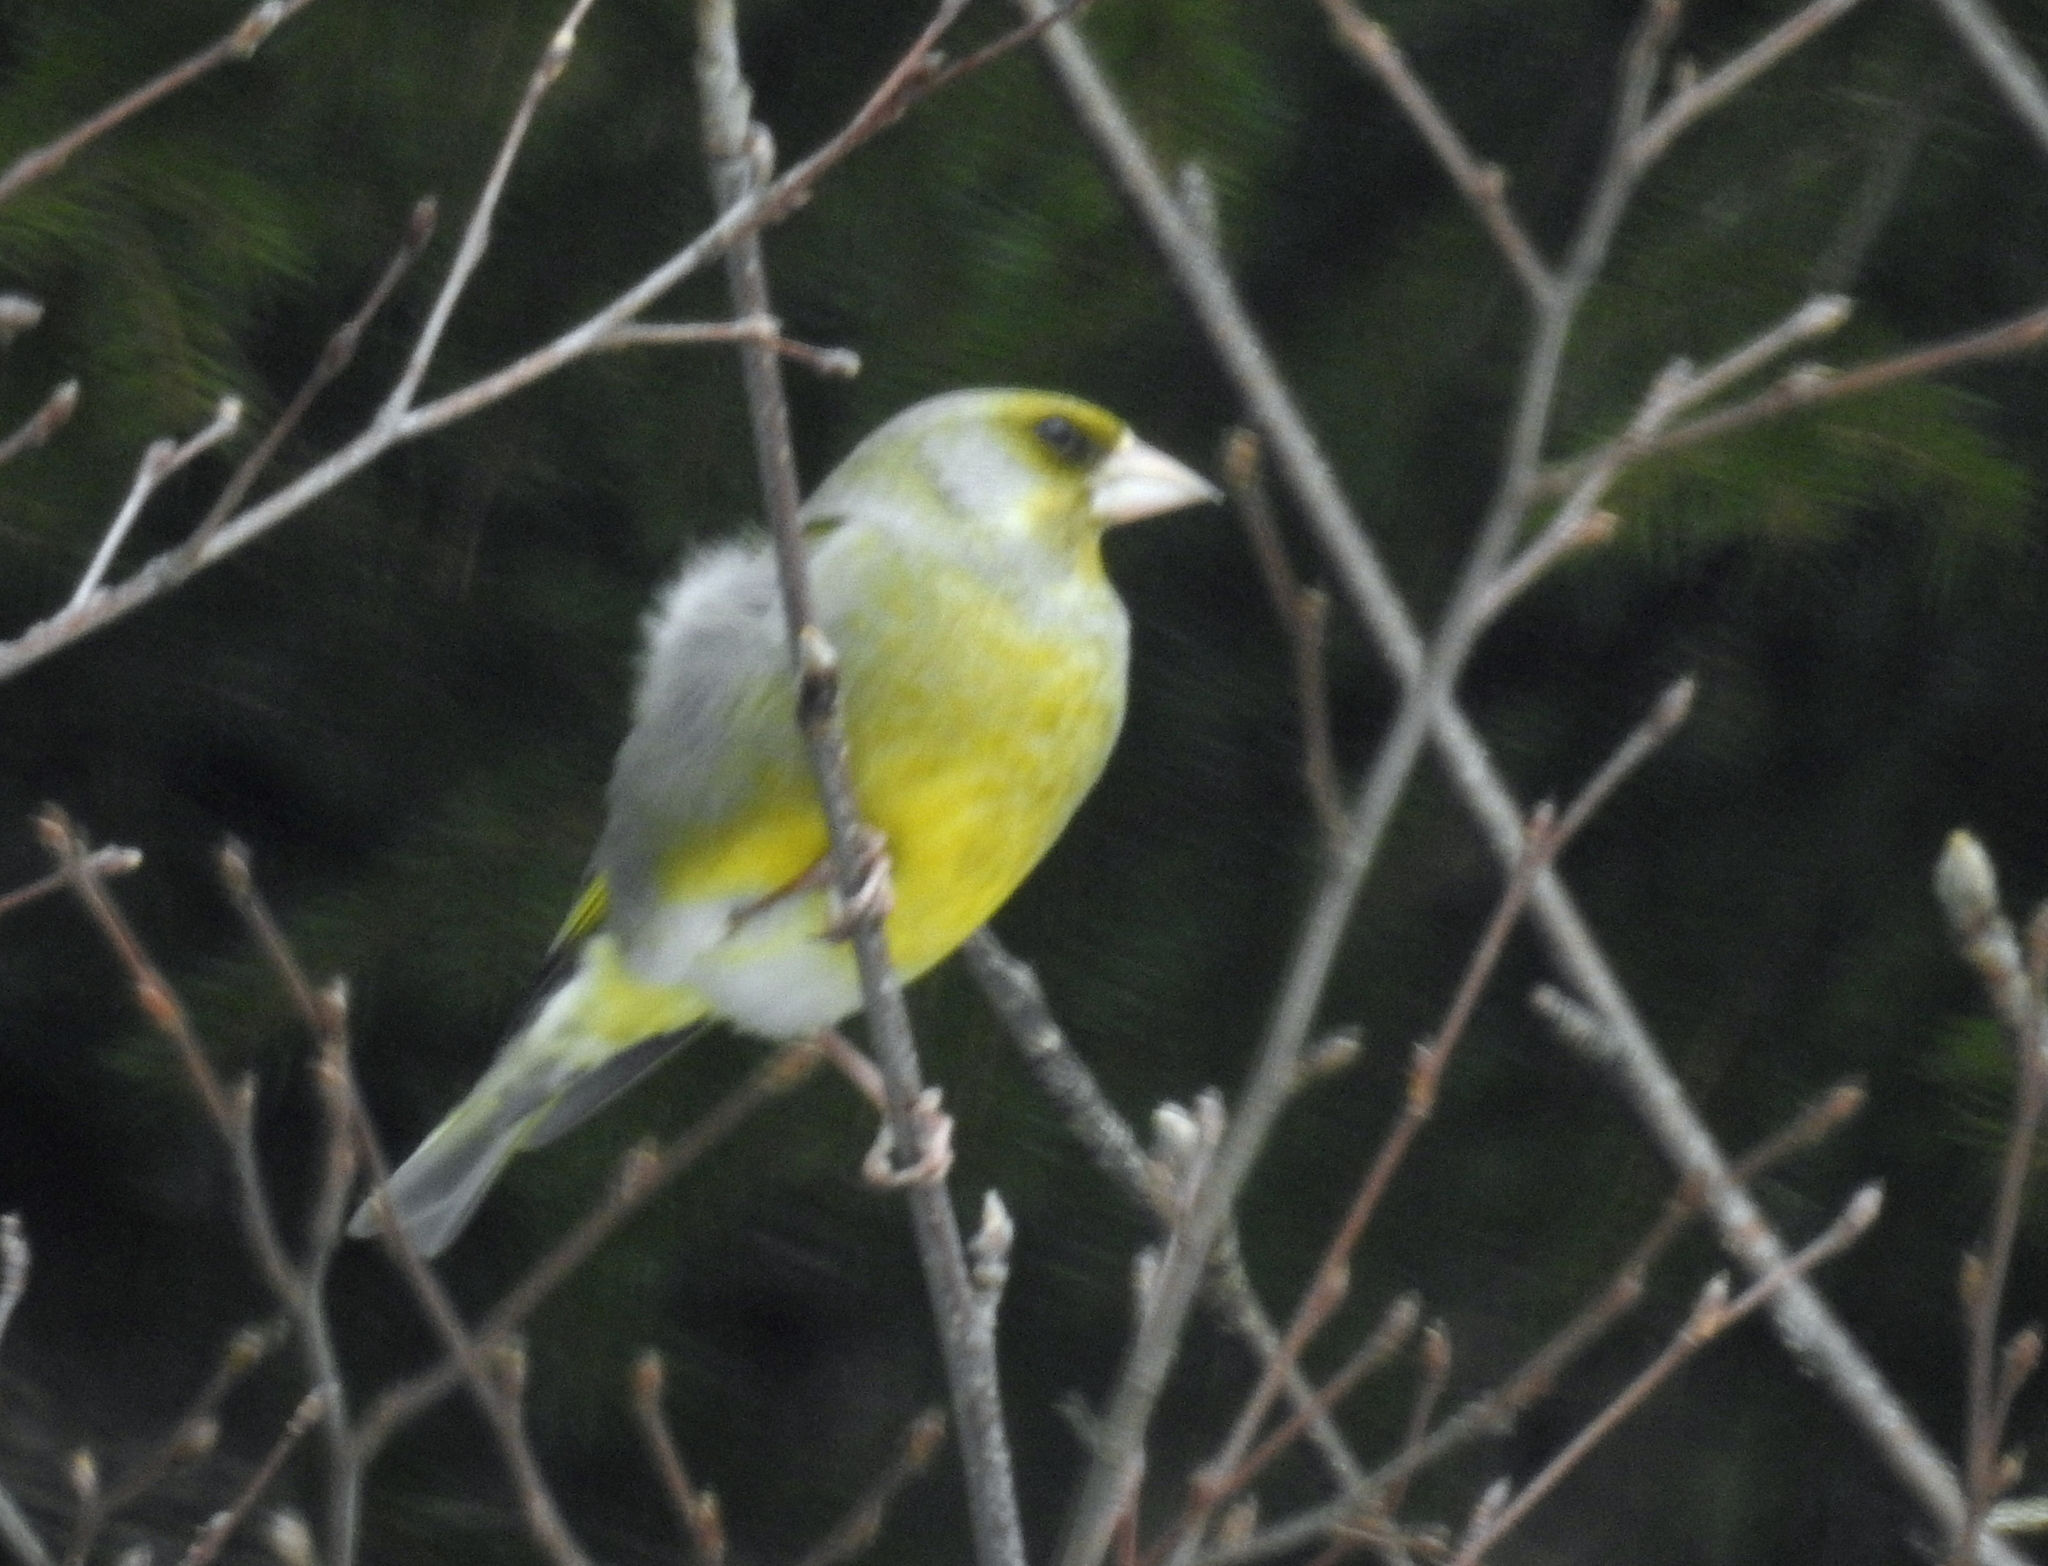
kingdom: Plantae
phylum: Tracheophyta
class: Liliopsida
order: Poales
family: Poaceae
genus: Chloris
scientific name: Chloris chloris
